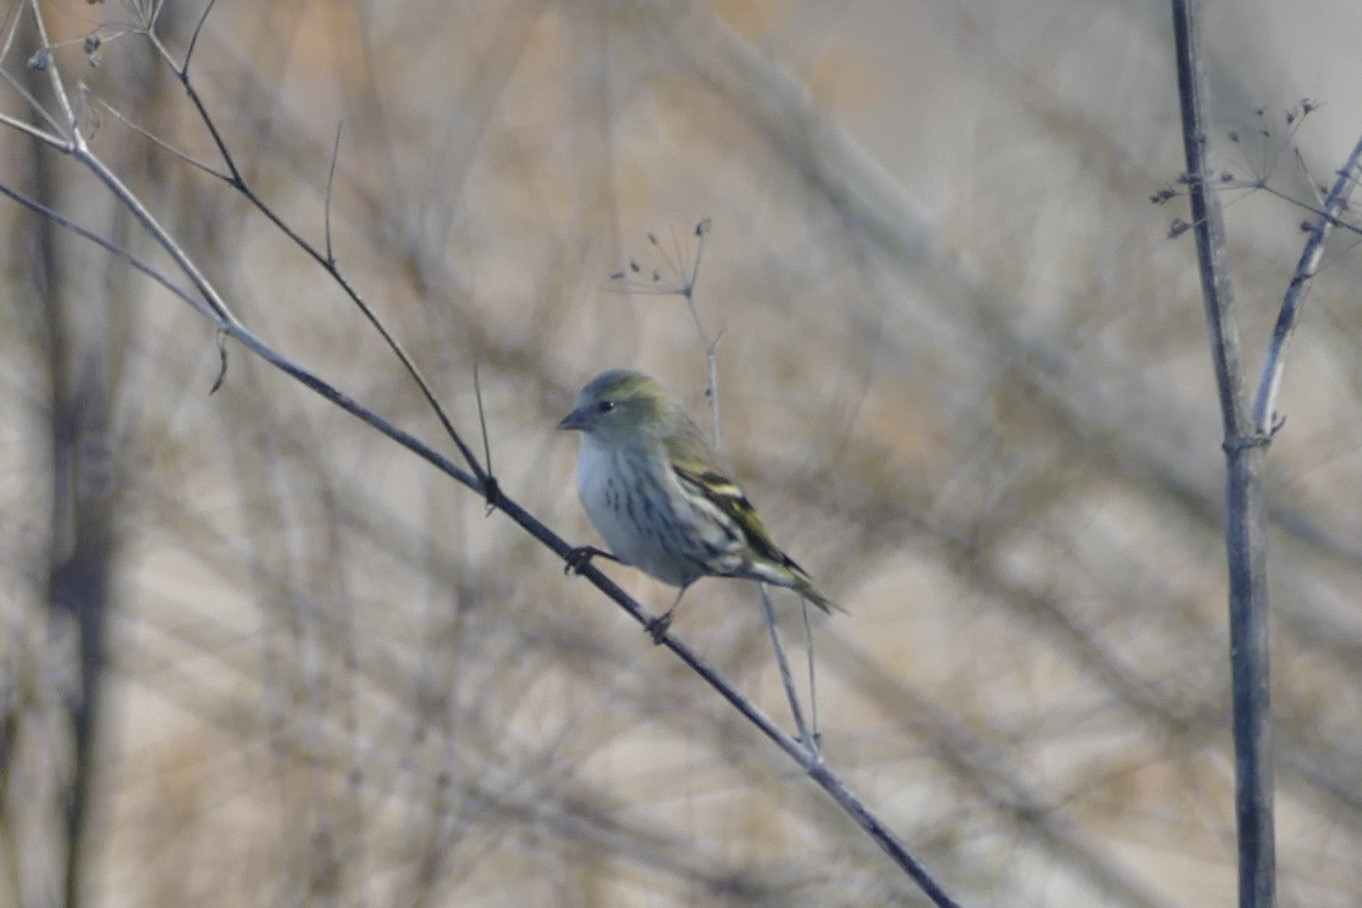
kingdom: Animalia
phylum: Chordata
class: Aves
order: Passeriformes
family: Fringillidae
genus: Spinus
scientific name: Spinus spinus
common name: Eurasian siskin
